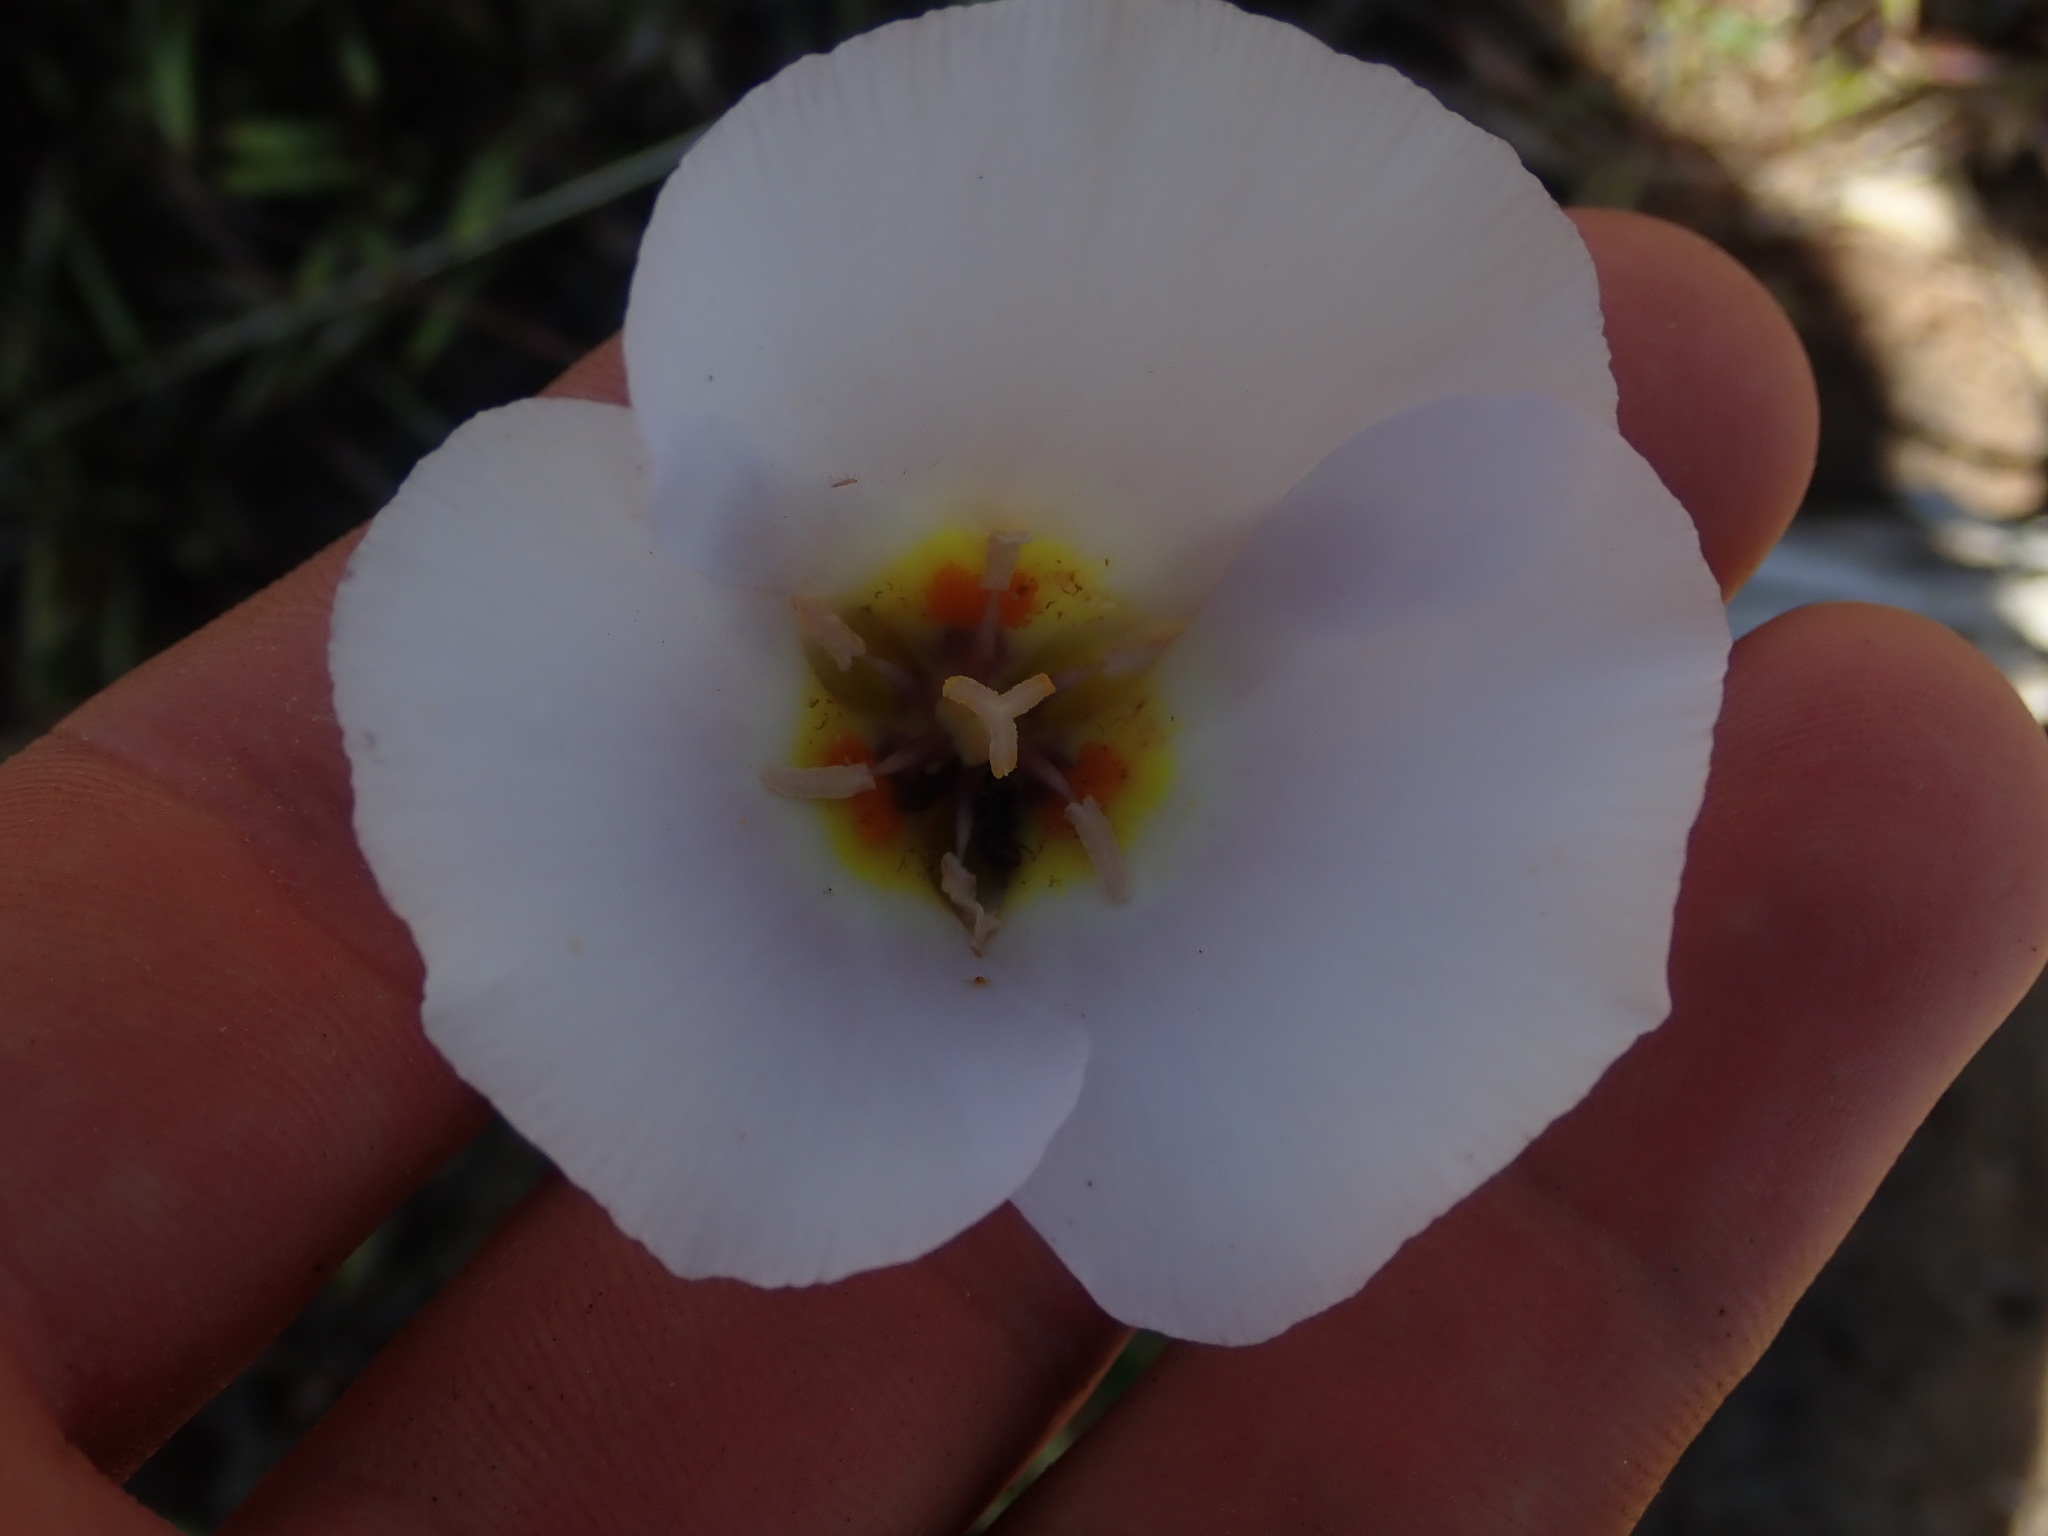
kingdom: Plantae
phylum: Tracheophyta
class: Liliopsida
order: Liliales
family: Liliaceae
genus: Calochortus
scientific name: Calochortus flexuosus
